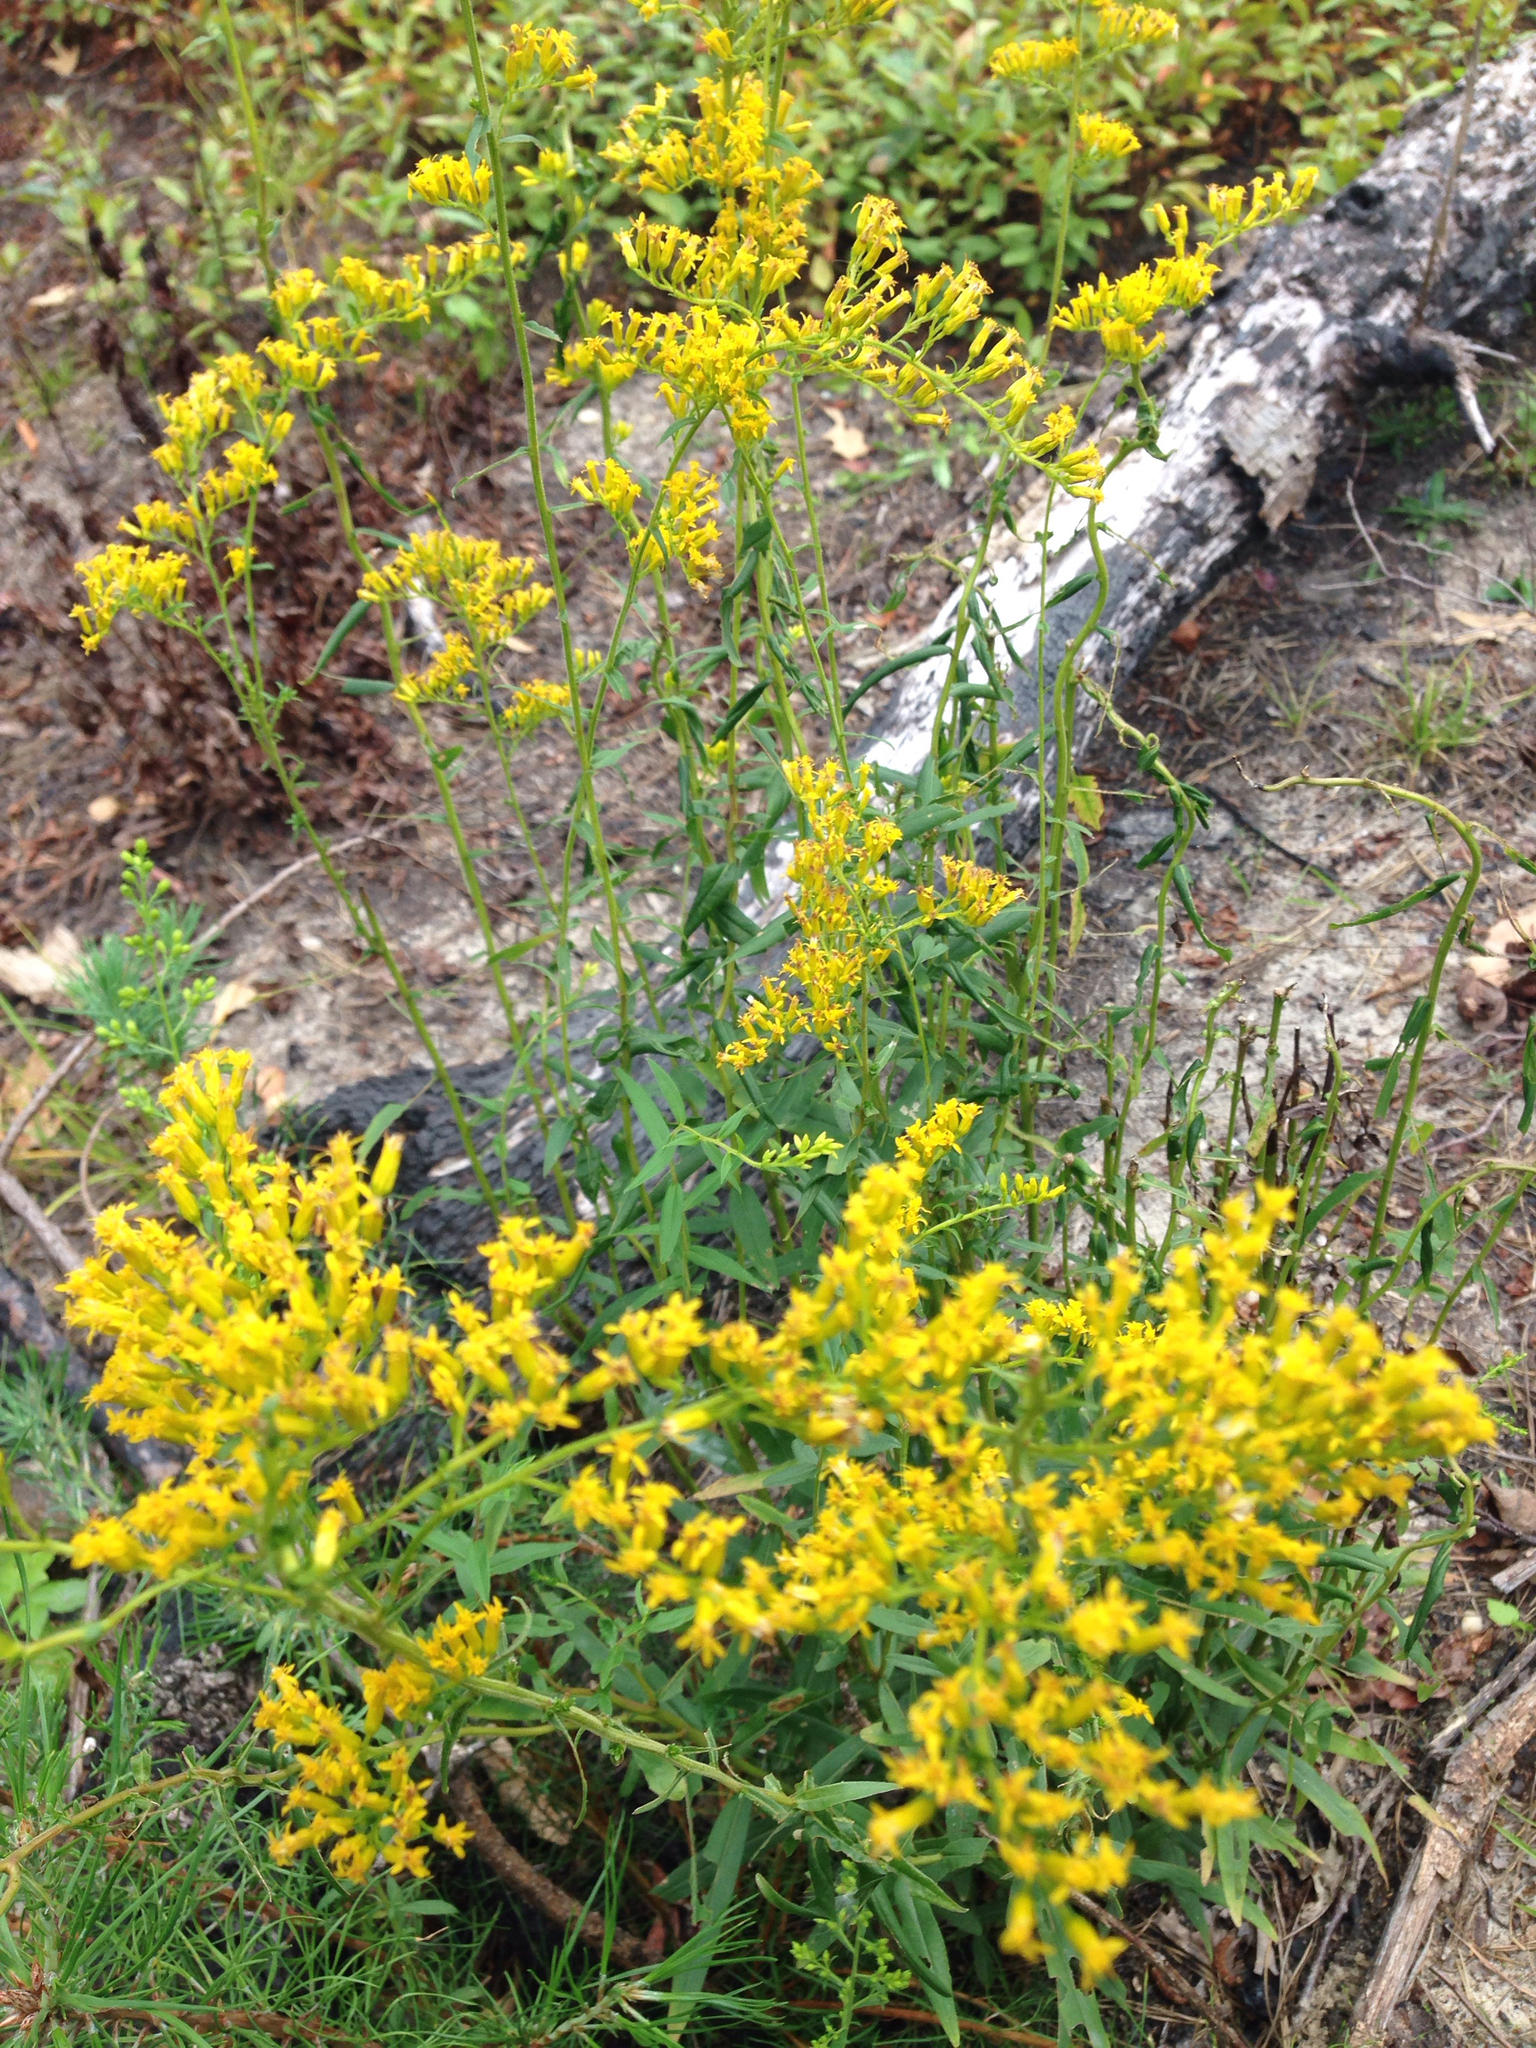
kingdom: Plantae
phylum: Tracheophyta
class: Magnoliopsida
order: Asterales
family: Asteraceae
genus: Solidago
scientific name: Solidago odora
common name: Anise-scented goldenrod
